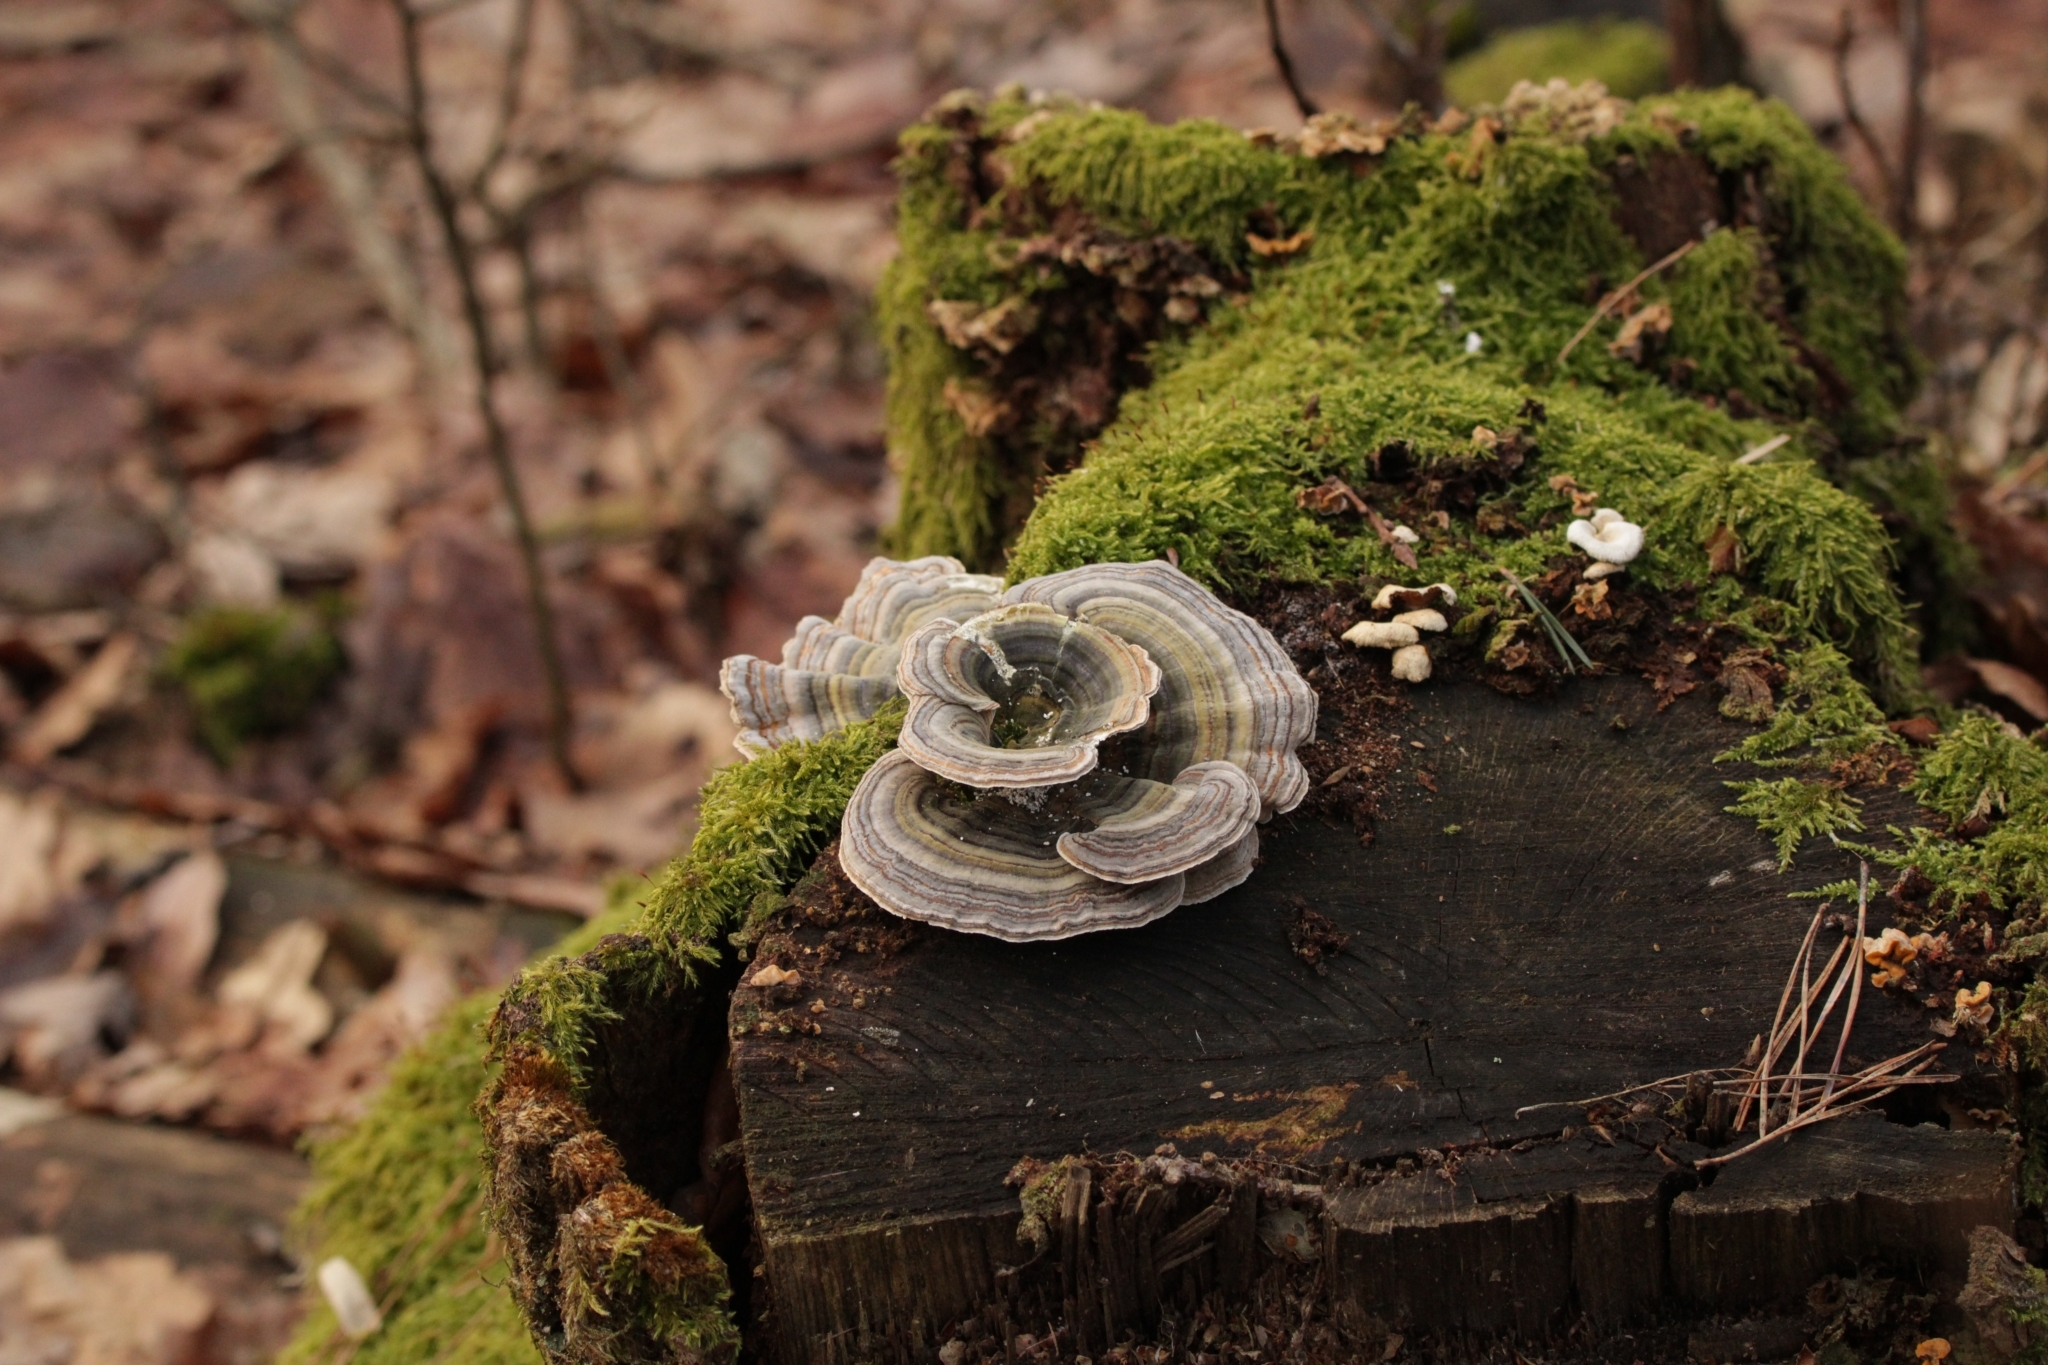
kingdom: Fungi
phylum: Basidiomycota
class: Agaricomycetes
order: Polyporales
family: Polyporaceae
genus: Trametes
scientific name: Trametes versicolor
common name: Turkeytail
